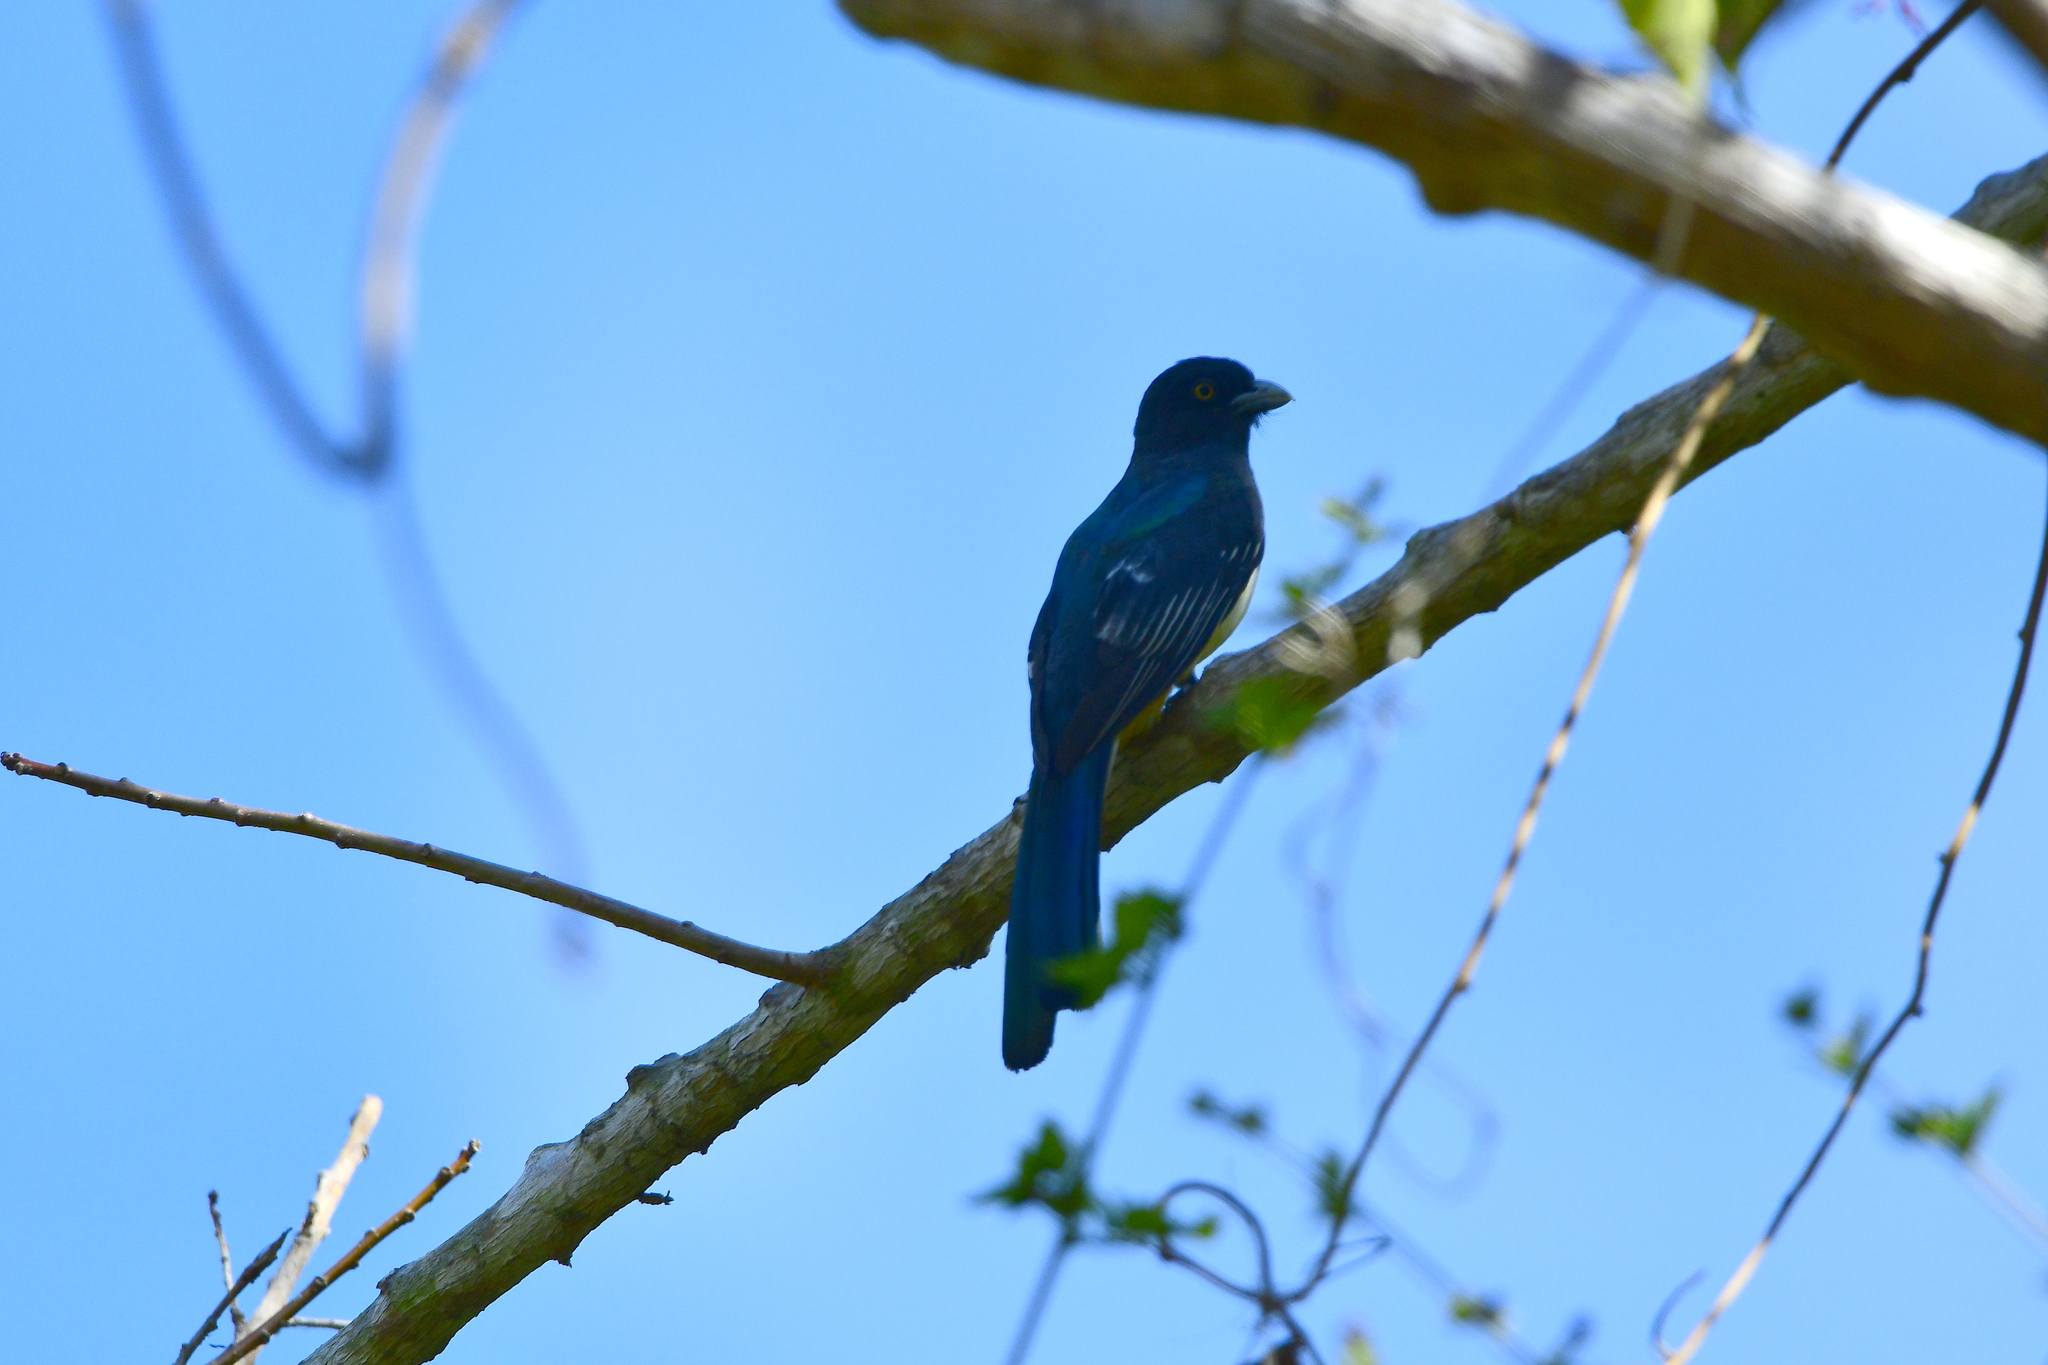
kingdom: Animalia
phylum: Chordata
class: Aves
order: Trogoniformes
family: Trogonidae
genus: Trogon
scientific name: Trogon citreolus
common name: Citreoline trogon
